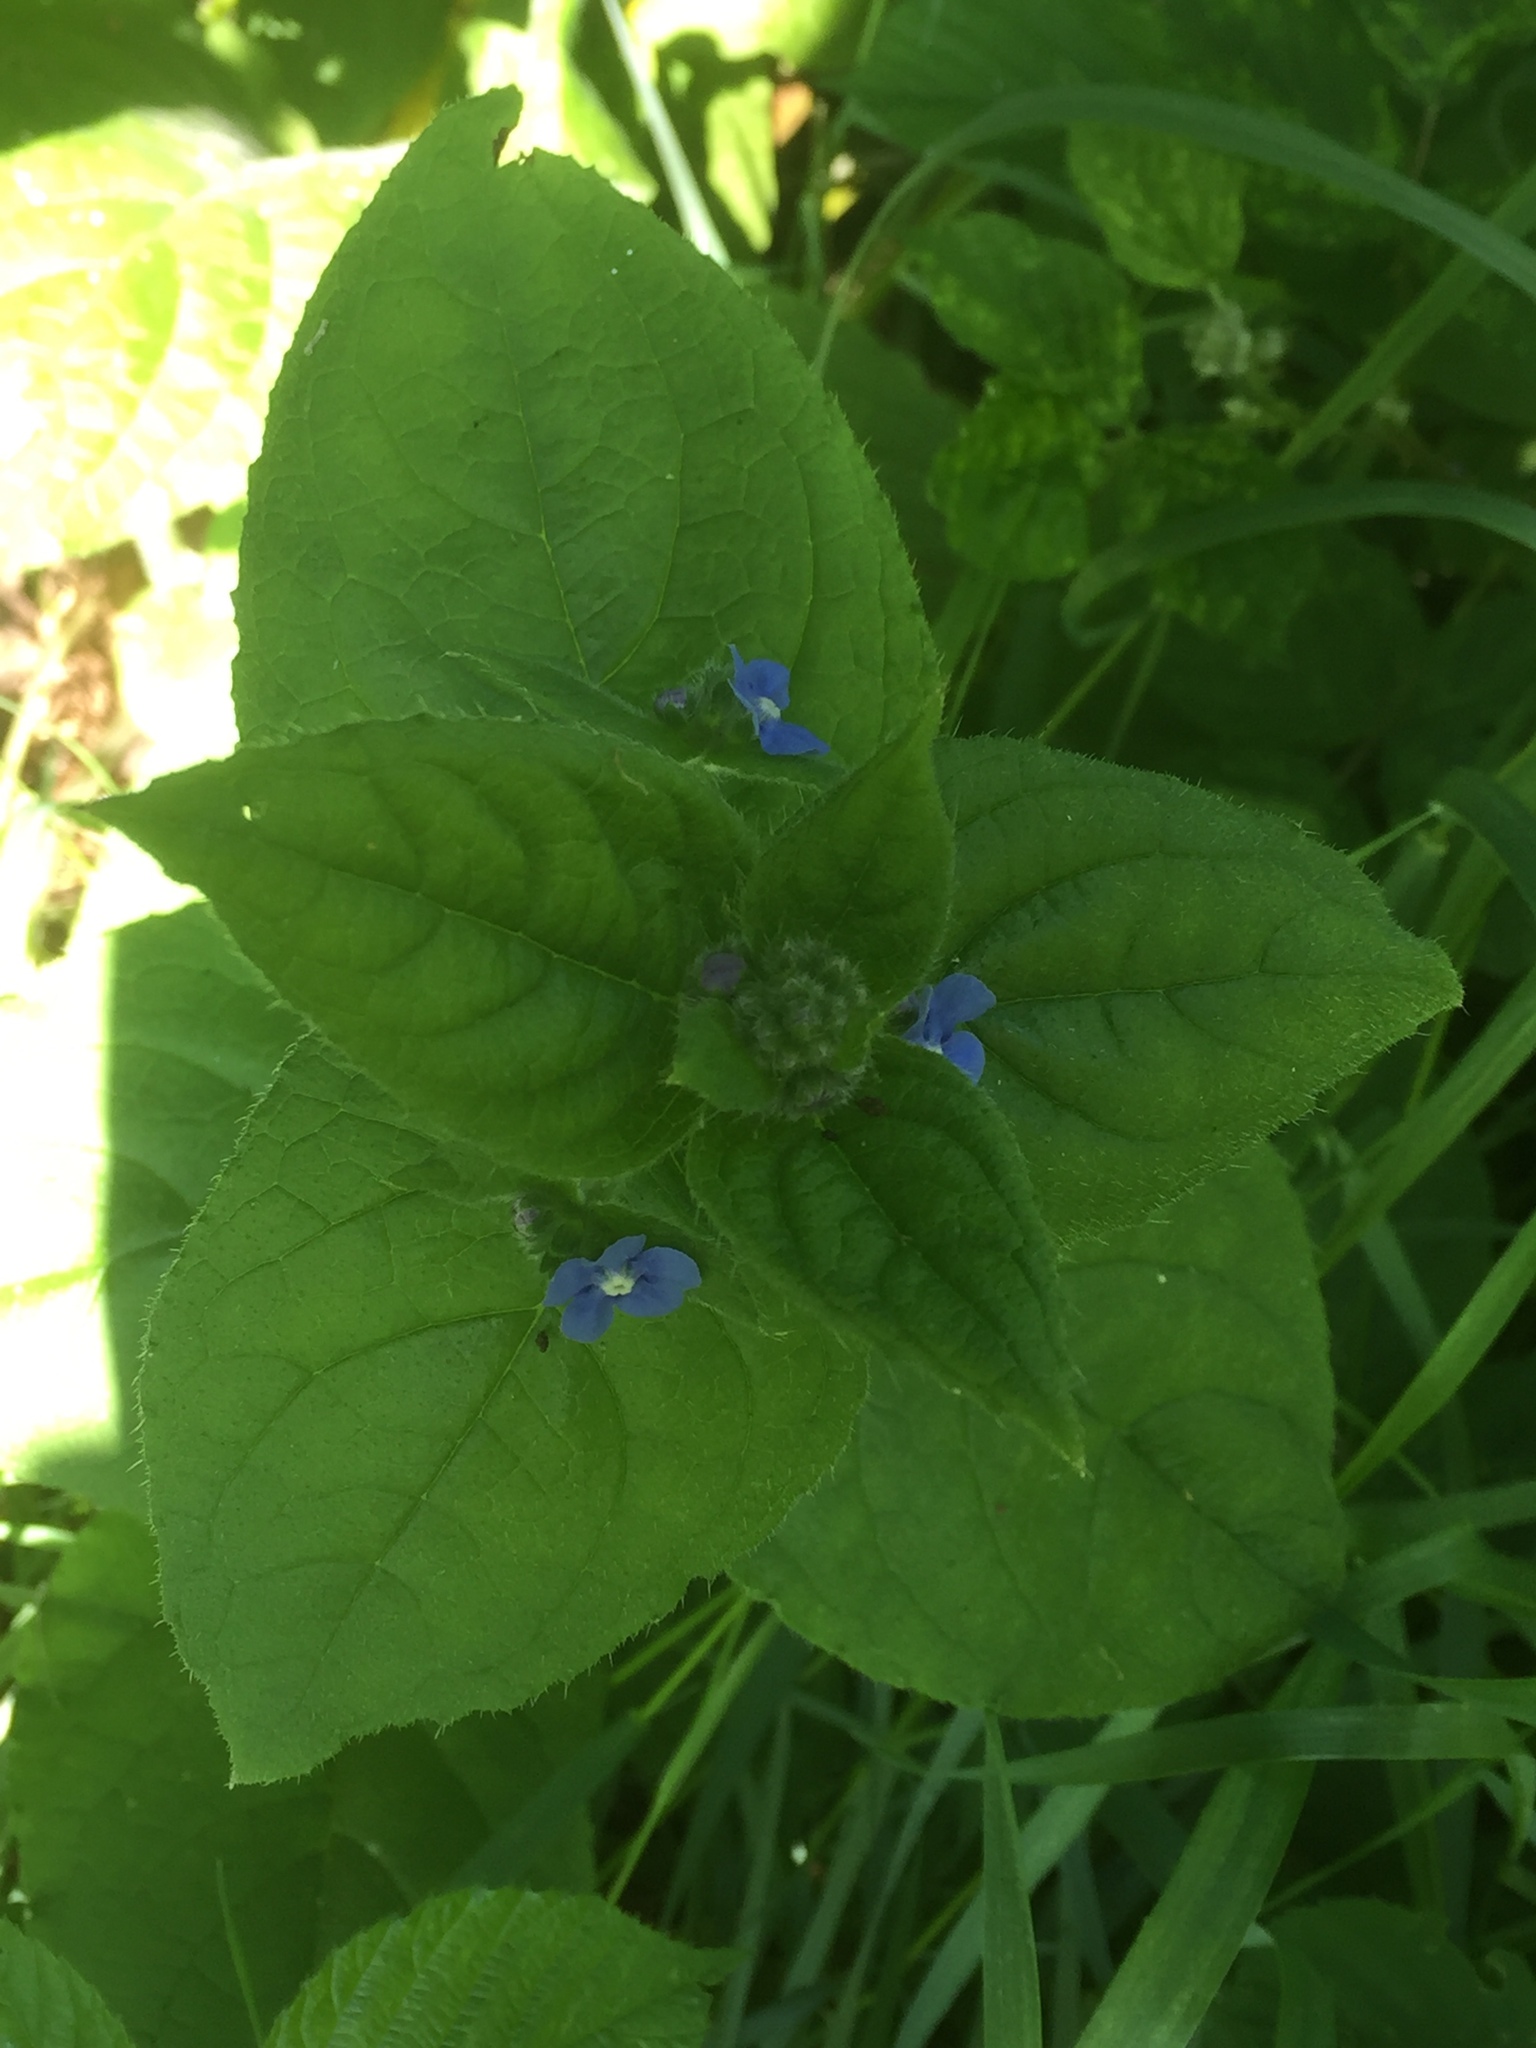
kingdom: Plantae
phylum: Tracheophyta
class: Magnoliopsida
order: Boraginales
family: Boraginaceae
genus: Pentaglottis
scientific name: Pentaglottis sempervirens
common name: Green alkanet
